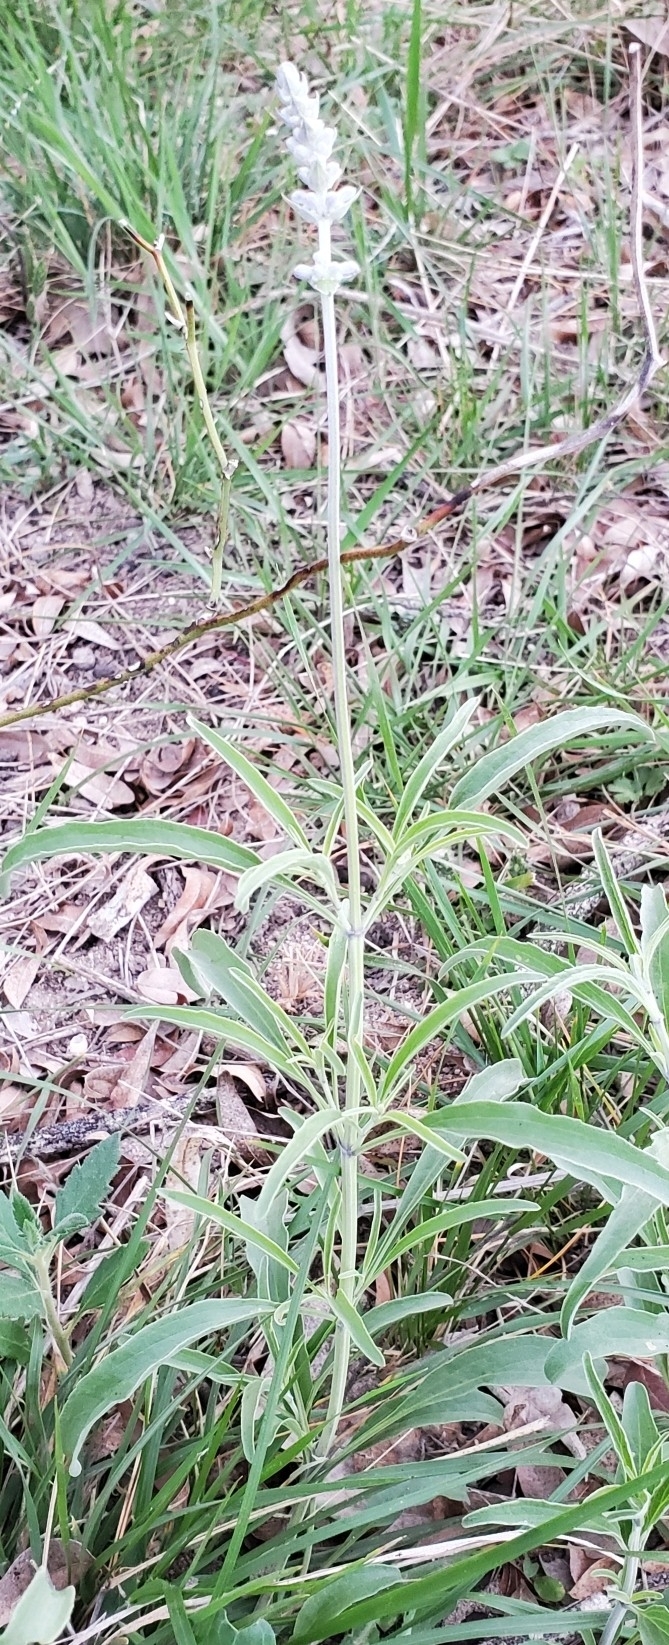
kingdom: Plantae
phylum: Tracheophyta
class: Magnoliopsida
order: Lamiales
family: Lamiaceae
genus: Salvia
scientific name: Salvia farinacea
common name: Mealy sage
